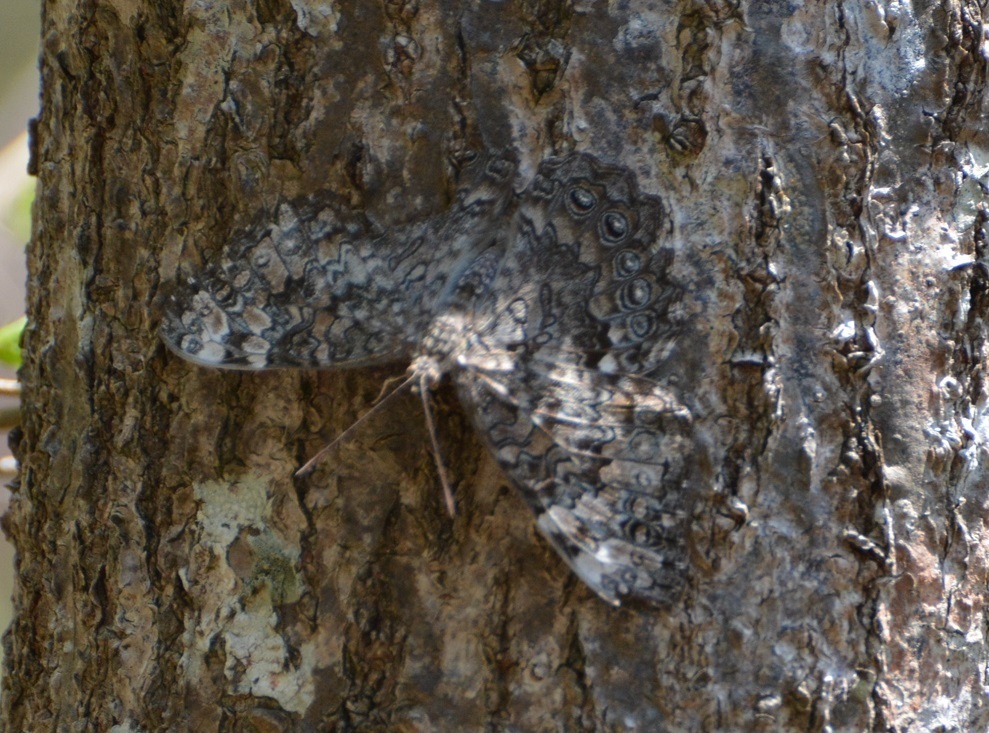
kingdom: Animalia
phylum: Arthropoda
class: Insecta
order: Lepidoptera
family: Nymphalidae
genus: Hamadryas
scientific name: Hamadryas februa
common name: Gray cracker
